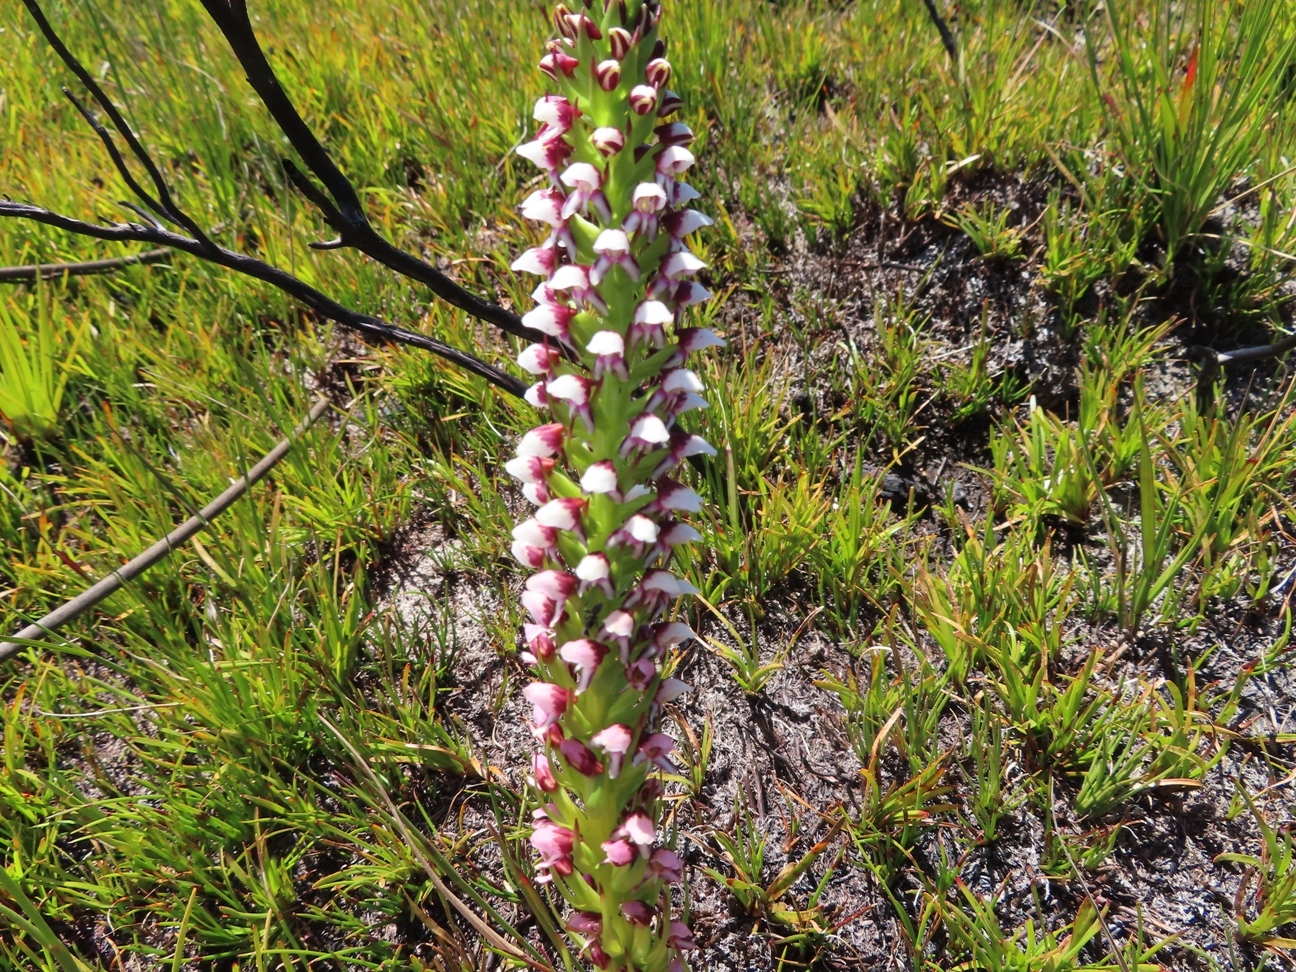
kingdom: Plantae
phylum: Tracheophyta
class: Liliopsida
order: Asparagales
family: Orchidaceae
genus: Disa
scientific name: Disa obtusa
